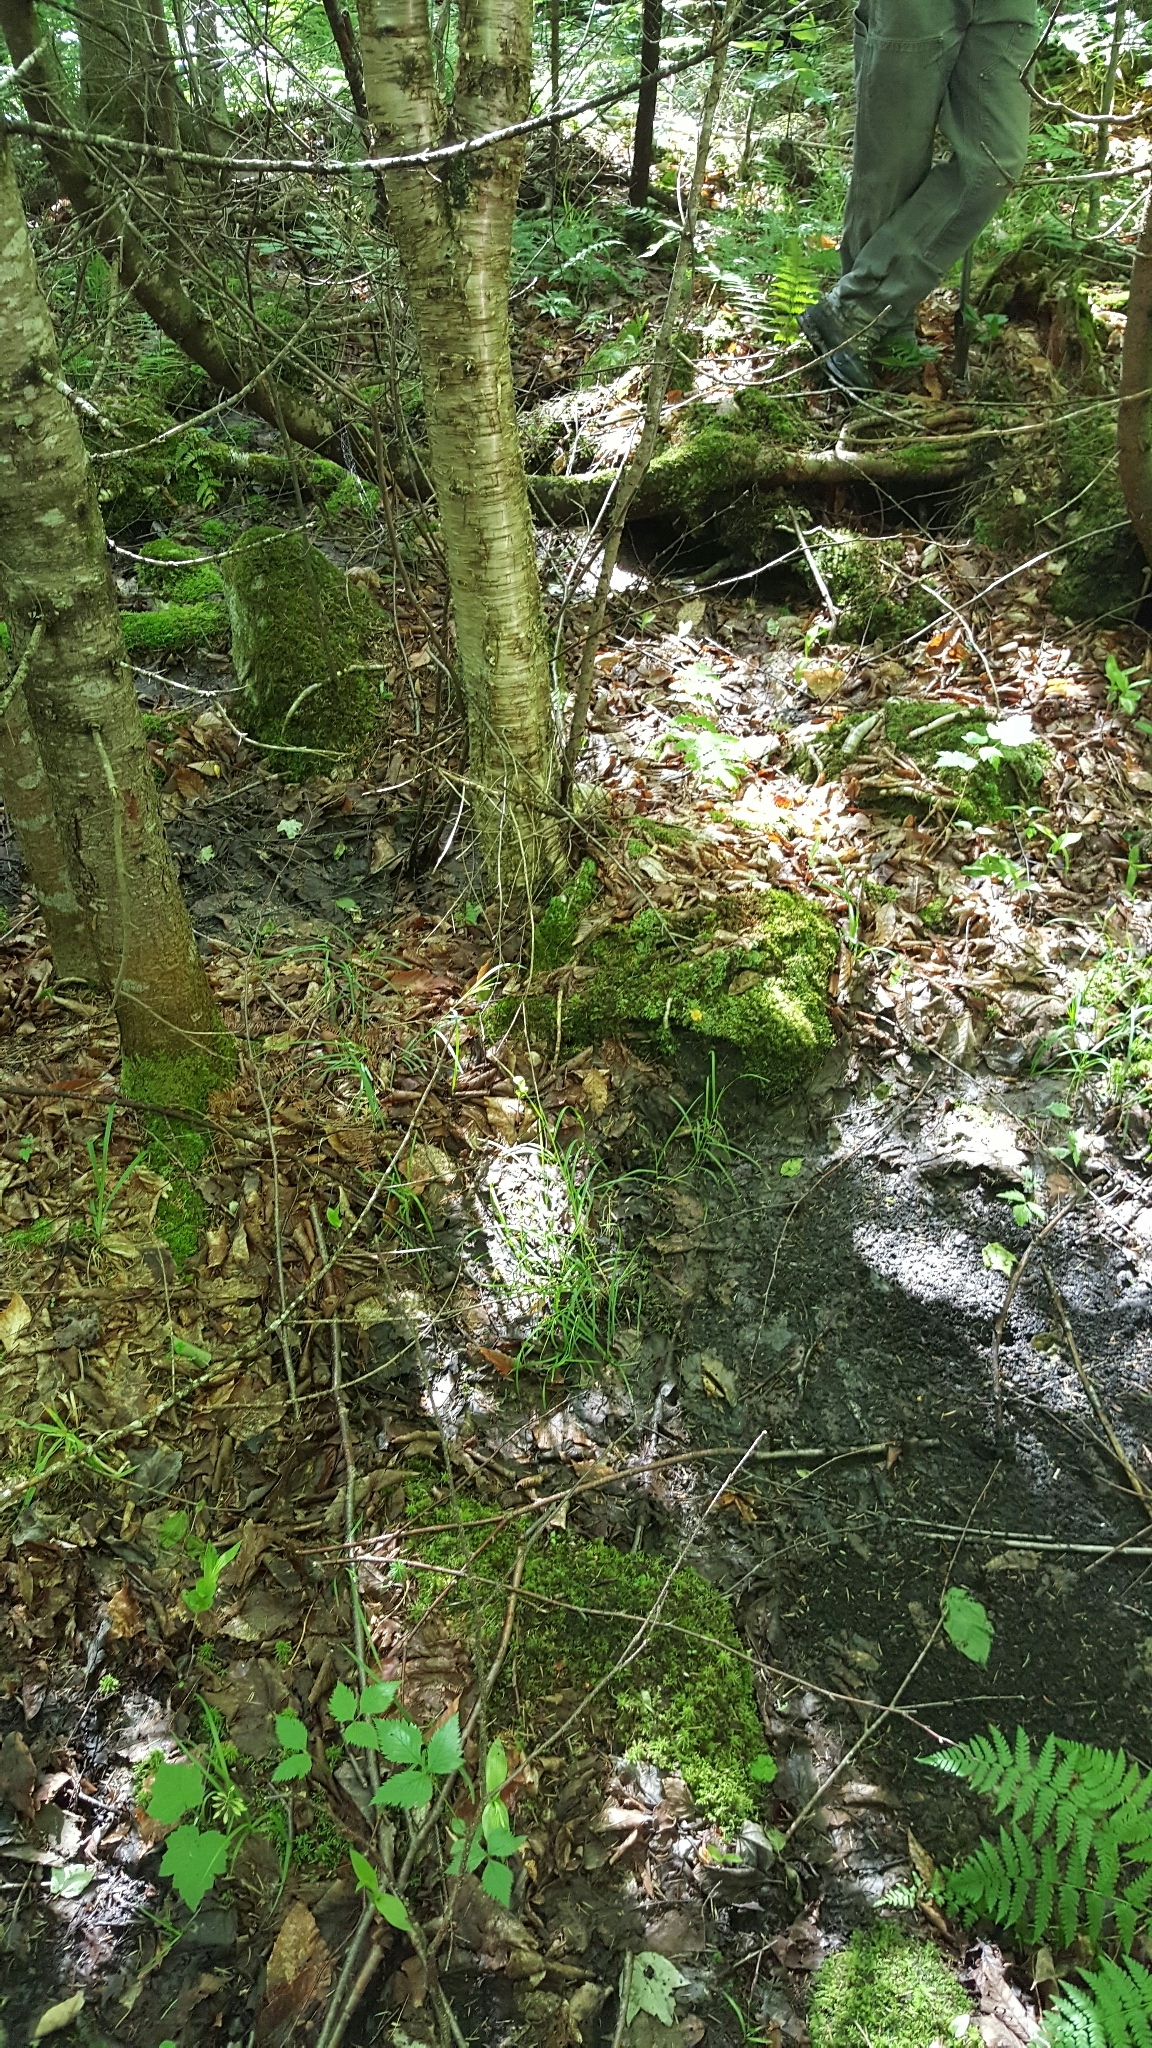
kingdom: Plantae
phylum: Tracheophyta
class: Magnoliopsida
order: Fagales
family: Betulaceae
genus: Betula
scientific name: Betula alleghaniensis
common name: Yellow birch
